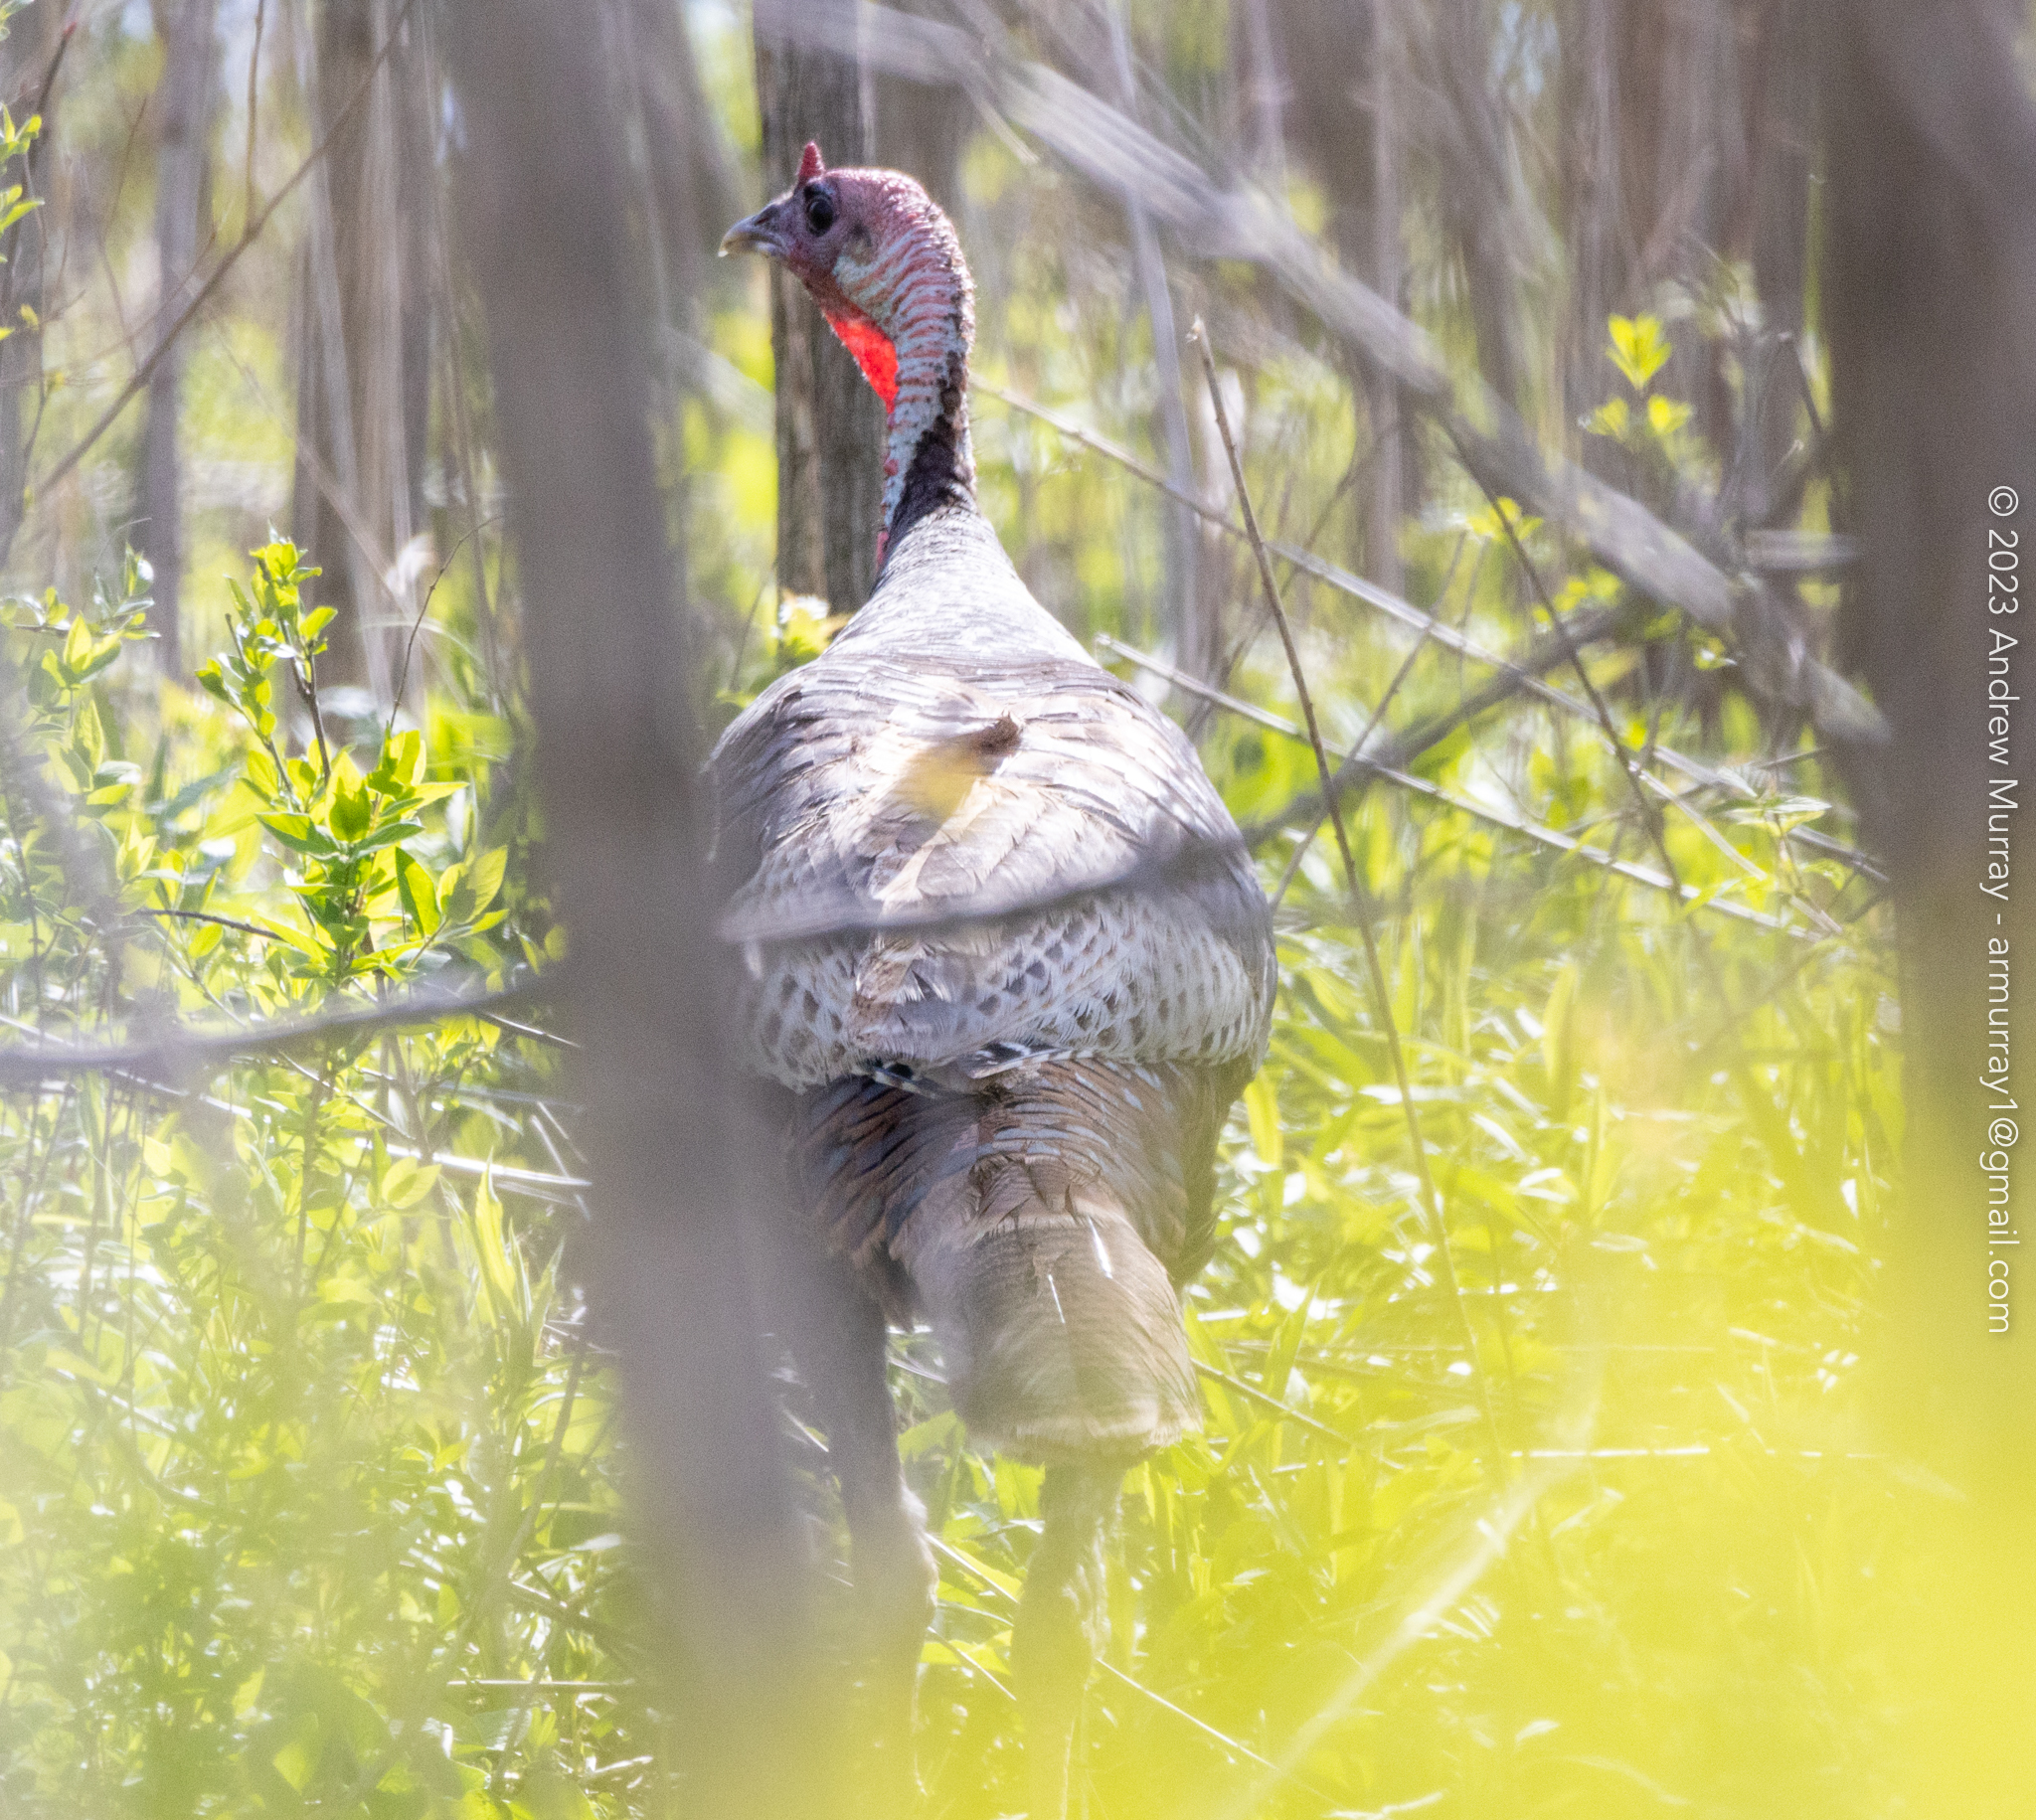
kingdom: Animalia
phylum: Chordata
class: Aves
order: Galliformes
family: Phasianidae
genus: Meleagris
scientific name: Meleagris gallopavo
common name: Wild turkey
